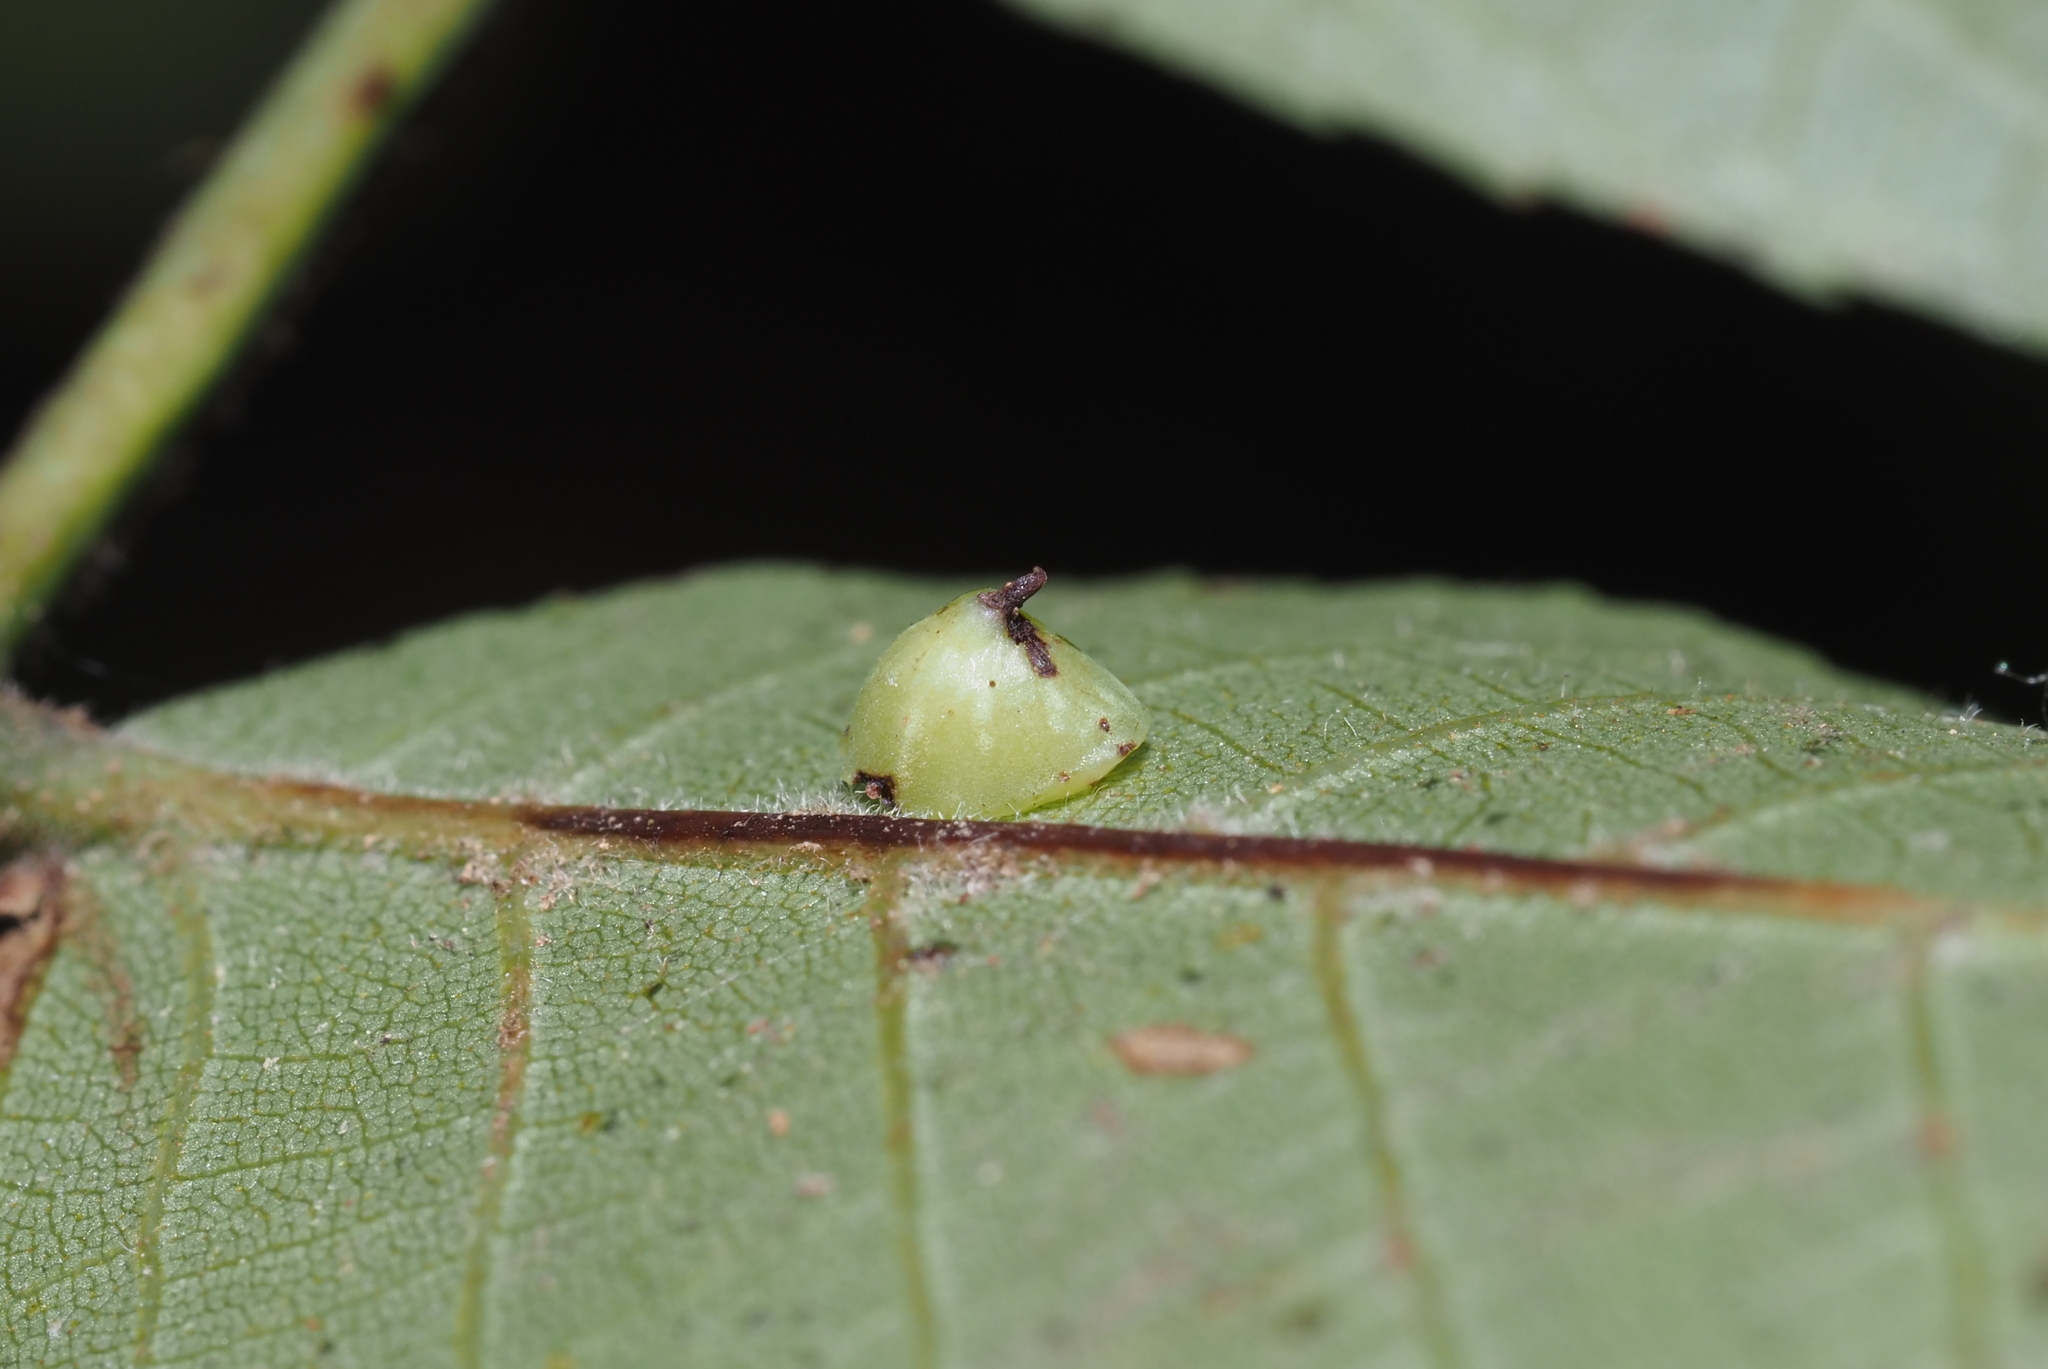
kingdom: Animalia
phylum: Arthropoda
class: Insecta
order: Diptera
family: Cecidomyiidae
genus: Caryomyia
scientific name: Caryomyia sanguinolenta
